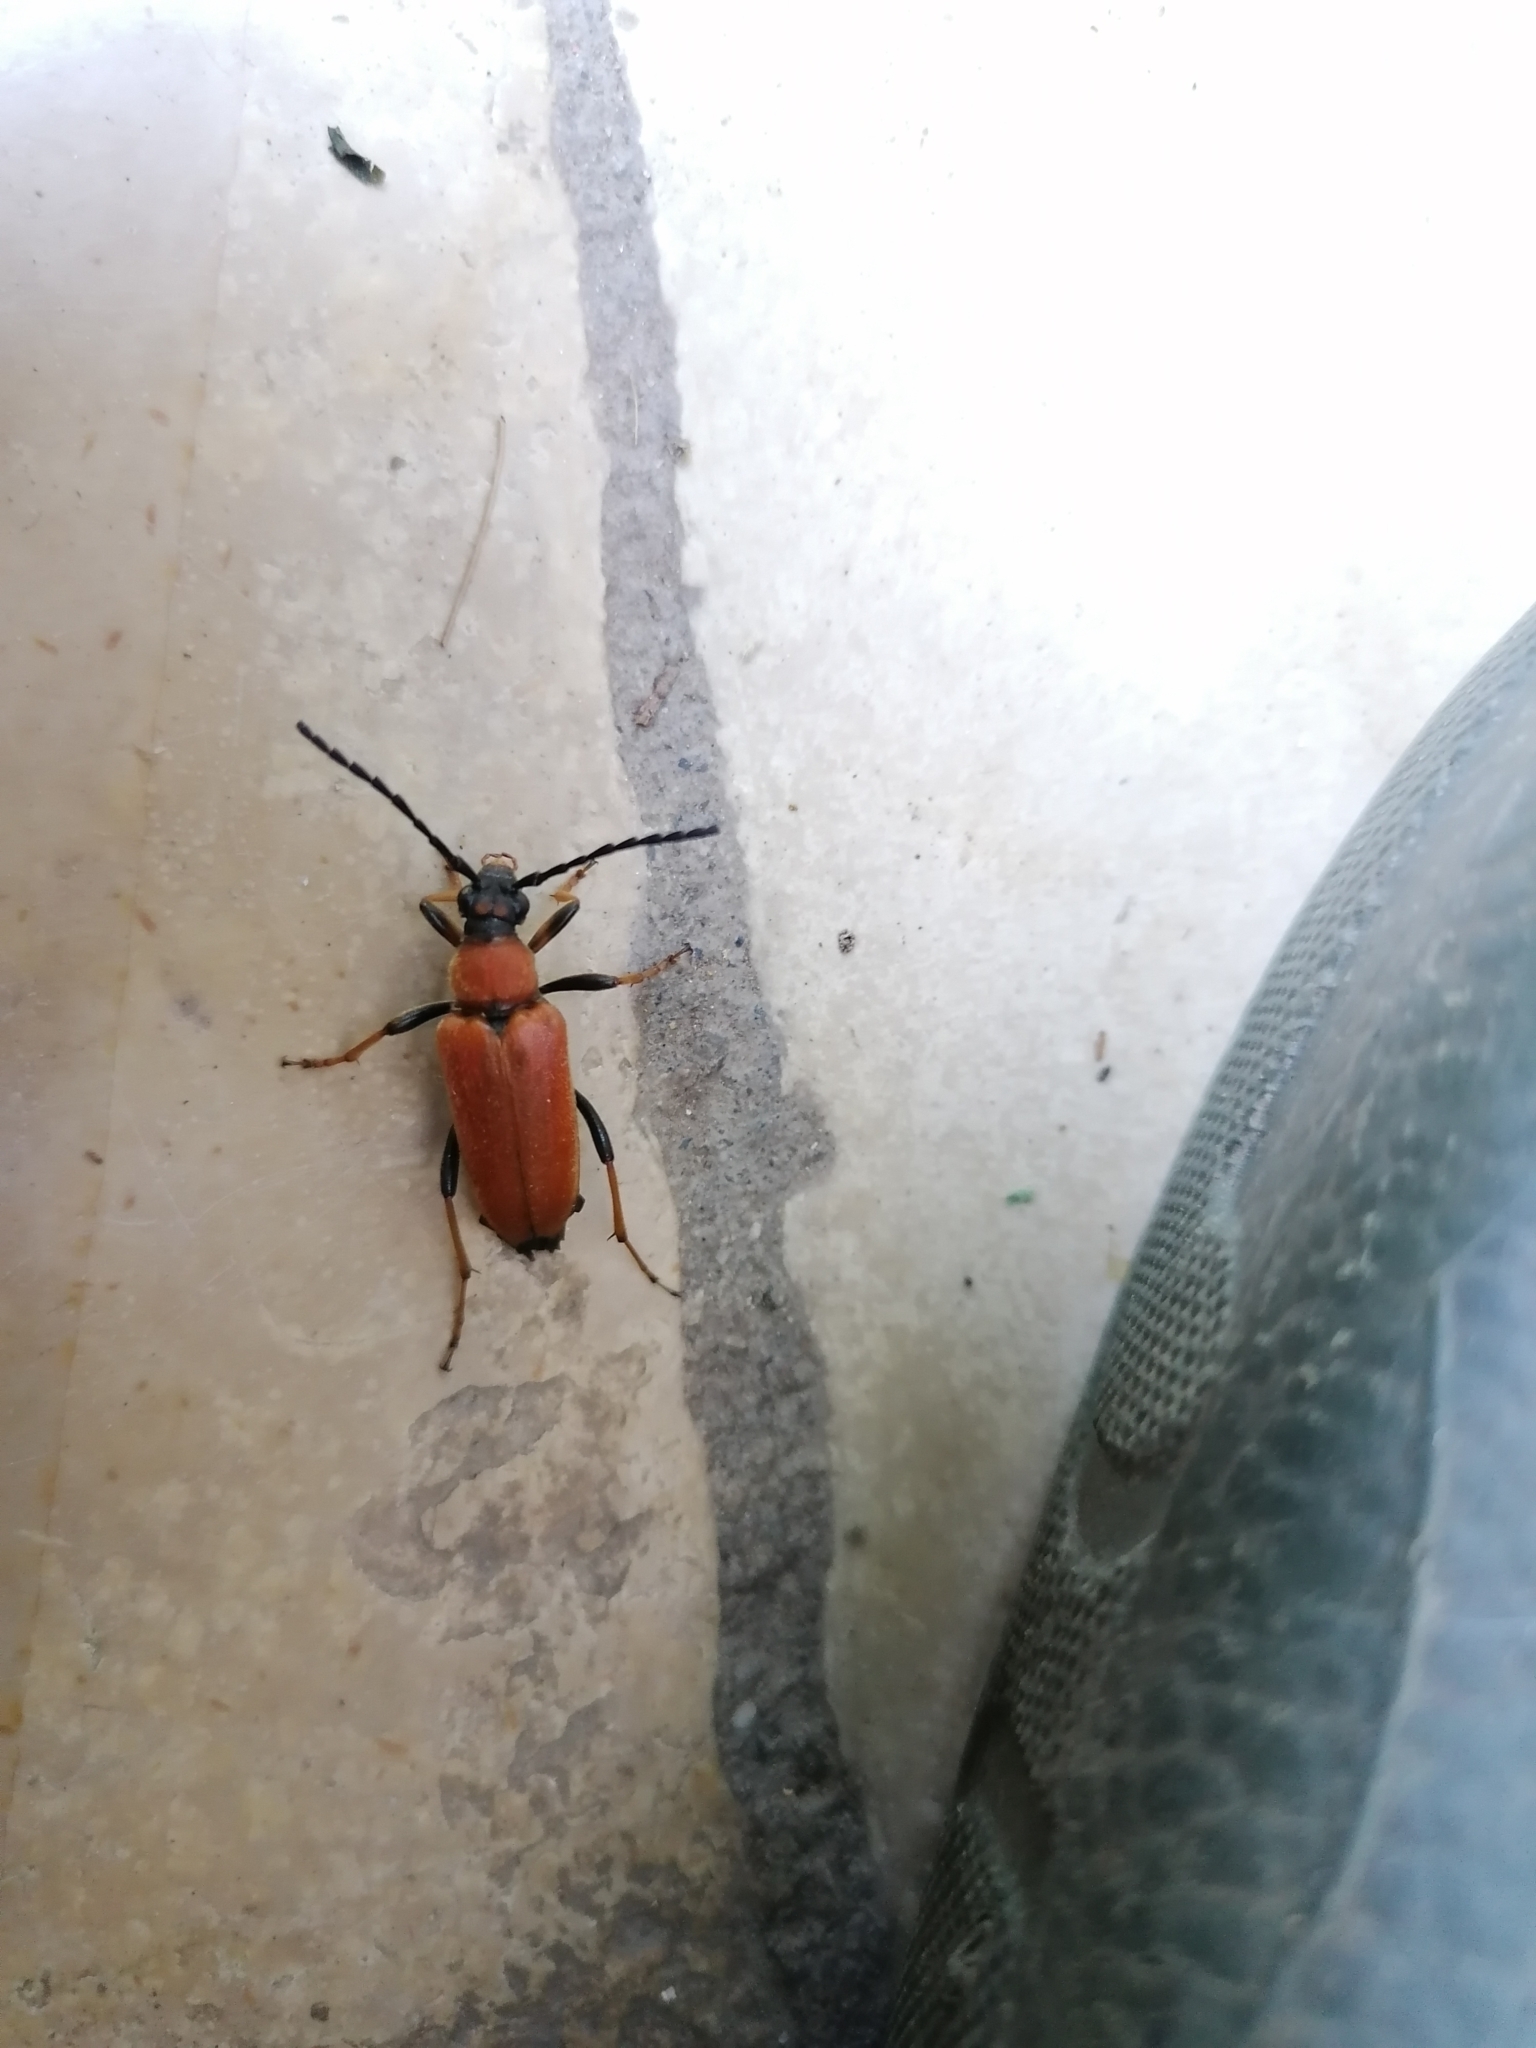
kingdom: Animalia
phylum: Arthropoda
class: Insecta
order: Coleoptera
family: Cerambycidae
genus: Stictoleptura
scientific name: Stictoleptura rubra
